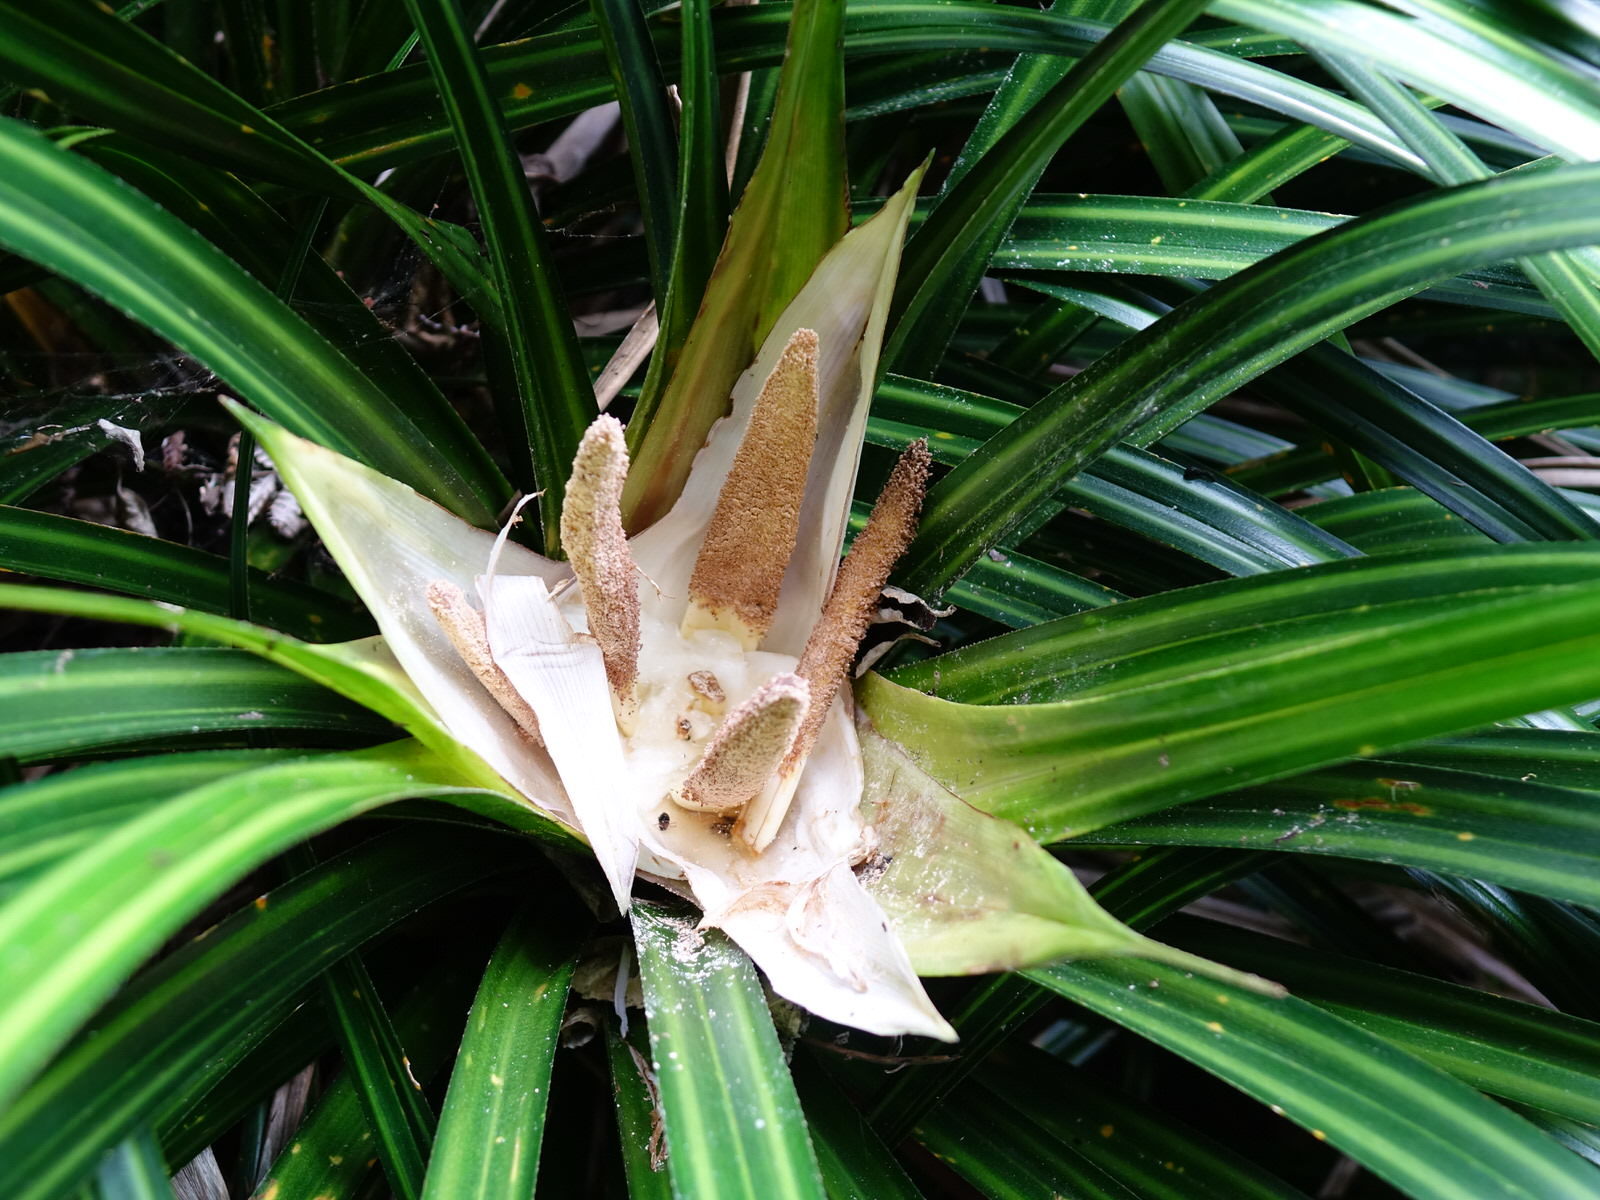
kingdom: Plantae
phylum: Tracheophyta
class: Liliopsida
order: Pandanales
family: Pandanaceae
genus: Freycinetia
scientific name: Freycinetia banksii
